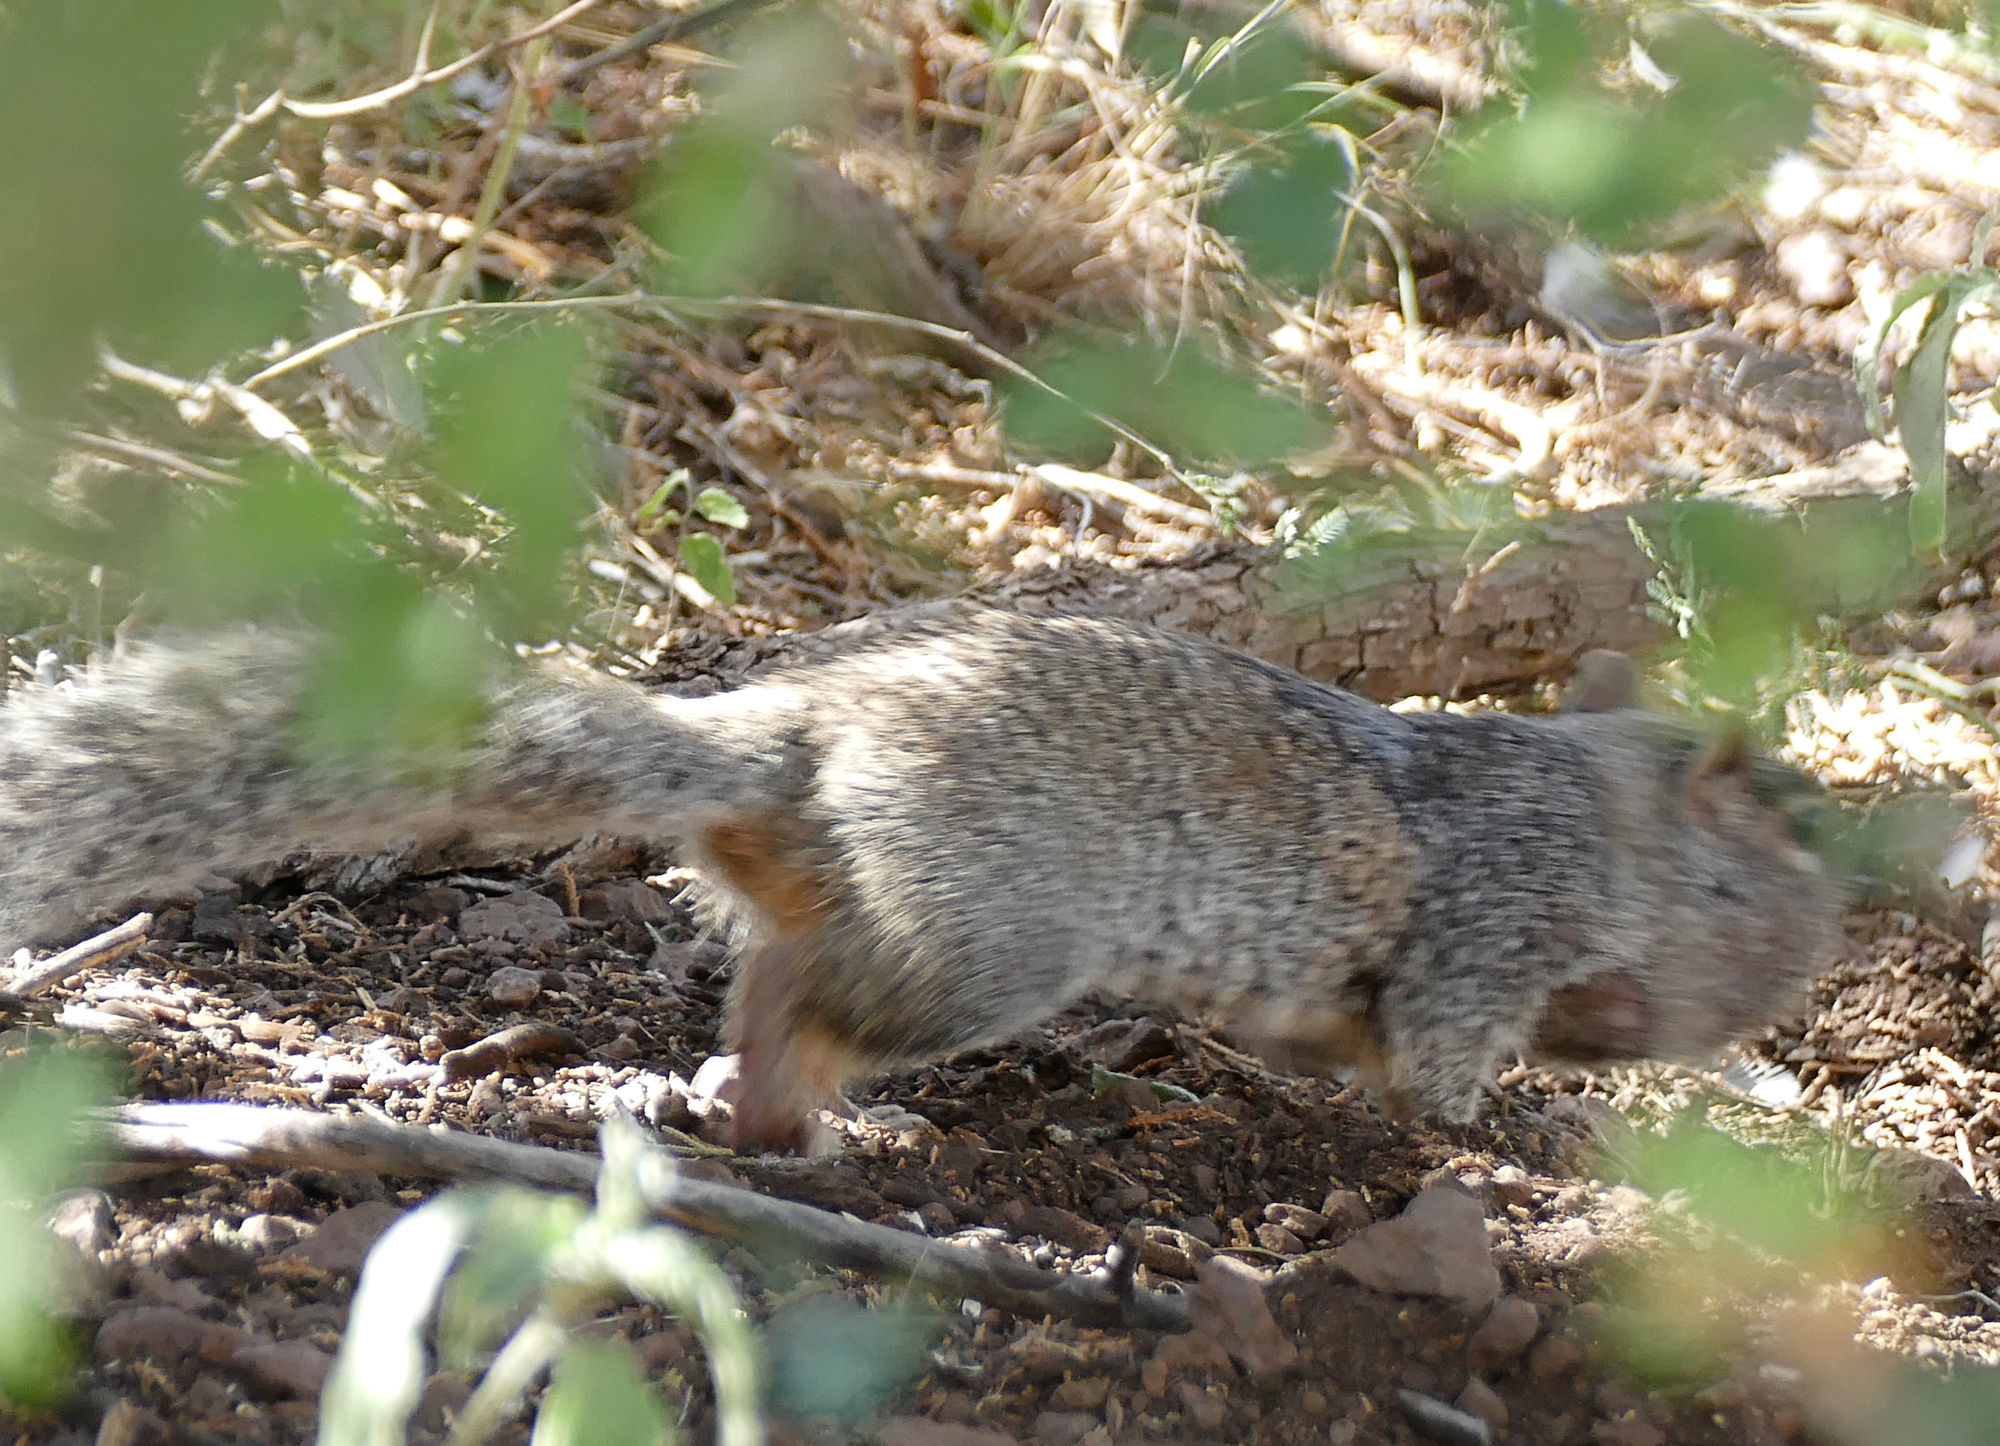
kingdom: Animalia
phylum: Chordata
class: Mammalia
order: Rodentia
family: Sciuridae
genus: Otospermophilus
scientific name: Otospermophilus variegatus
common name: Rock squirrel
